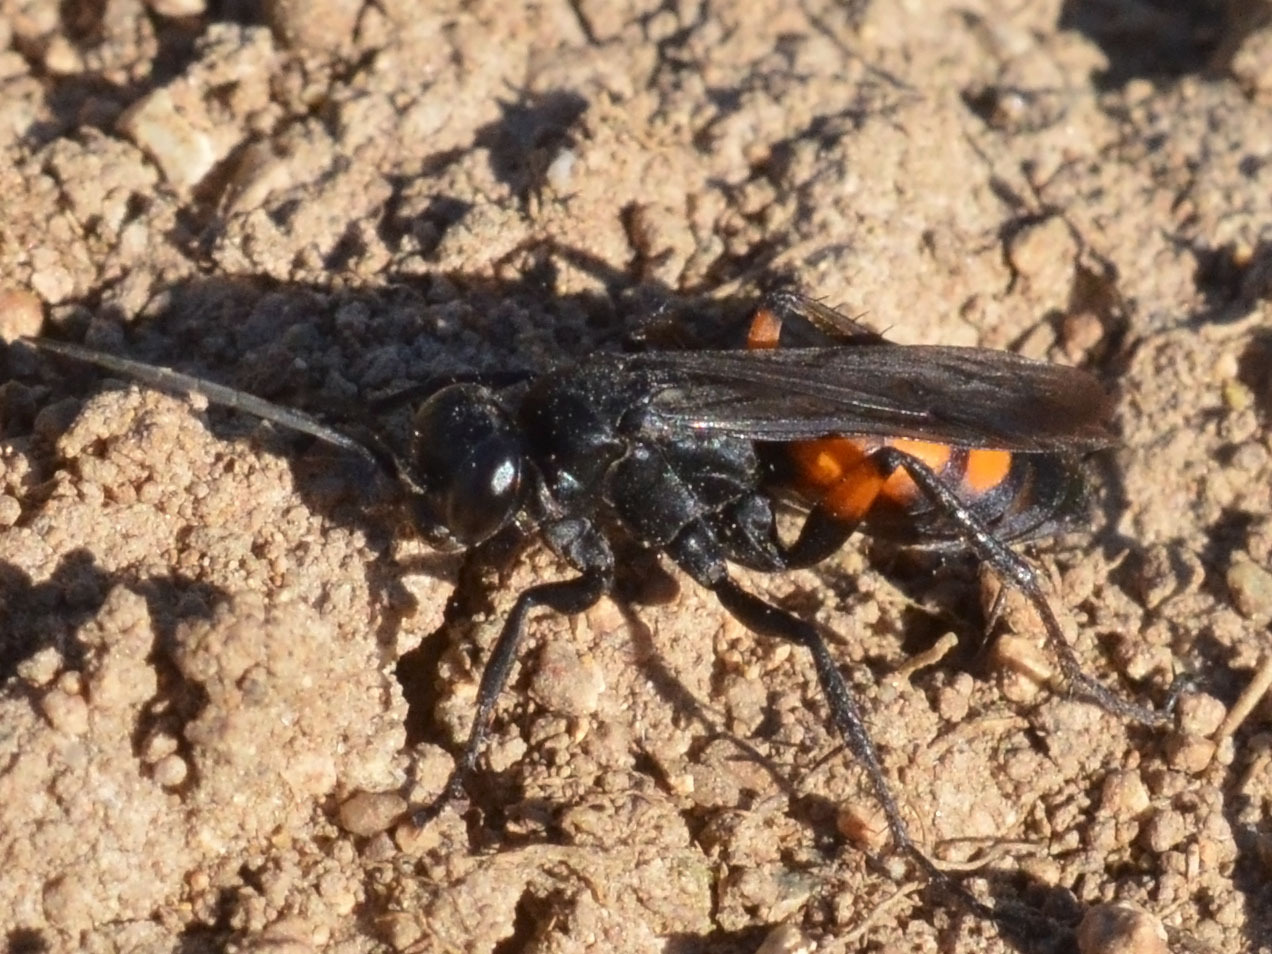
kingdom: Animalia
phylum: Arthropoda
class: Insecta
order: Hymenoptera
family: Pompilidae
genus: Anoplius
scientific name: Anoplius viaticus
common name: Black banded spider wasp
